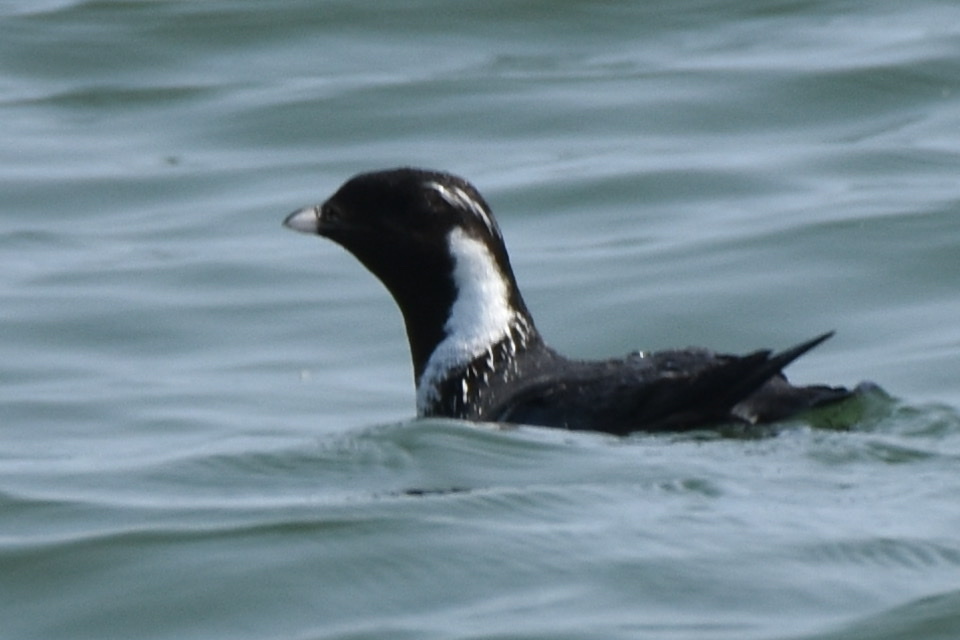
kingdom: Animalia
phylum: Chordata
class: Aves
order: Charadriiformes
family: Alcidae
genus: Synthliboramphus
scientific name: Synthliboramphus antiquus
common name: Ancient murrelet
